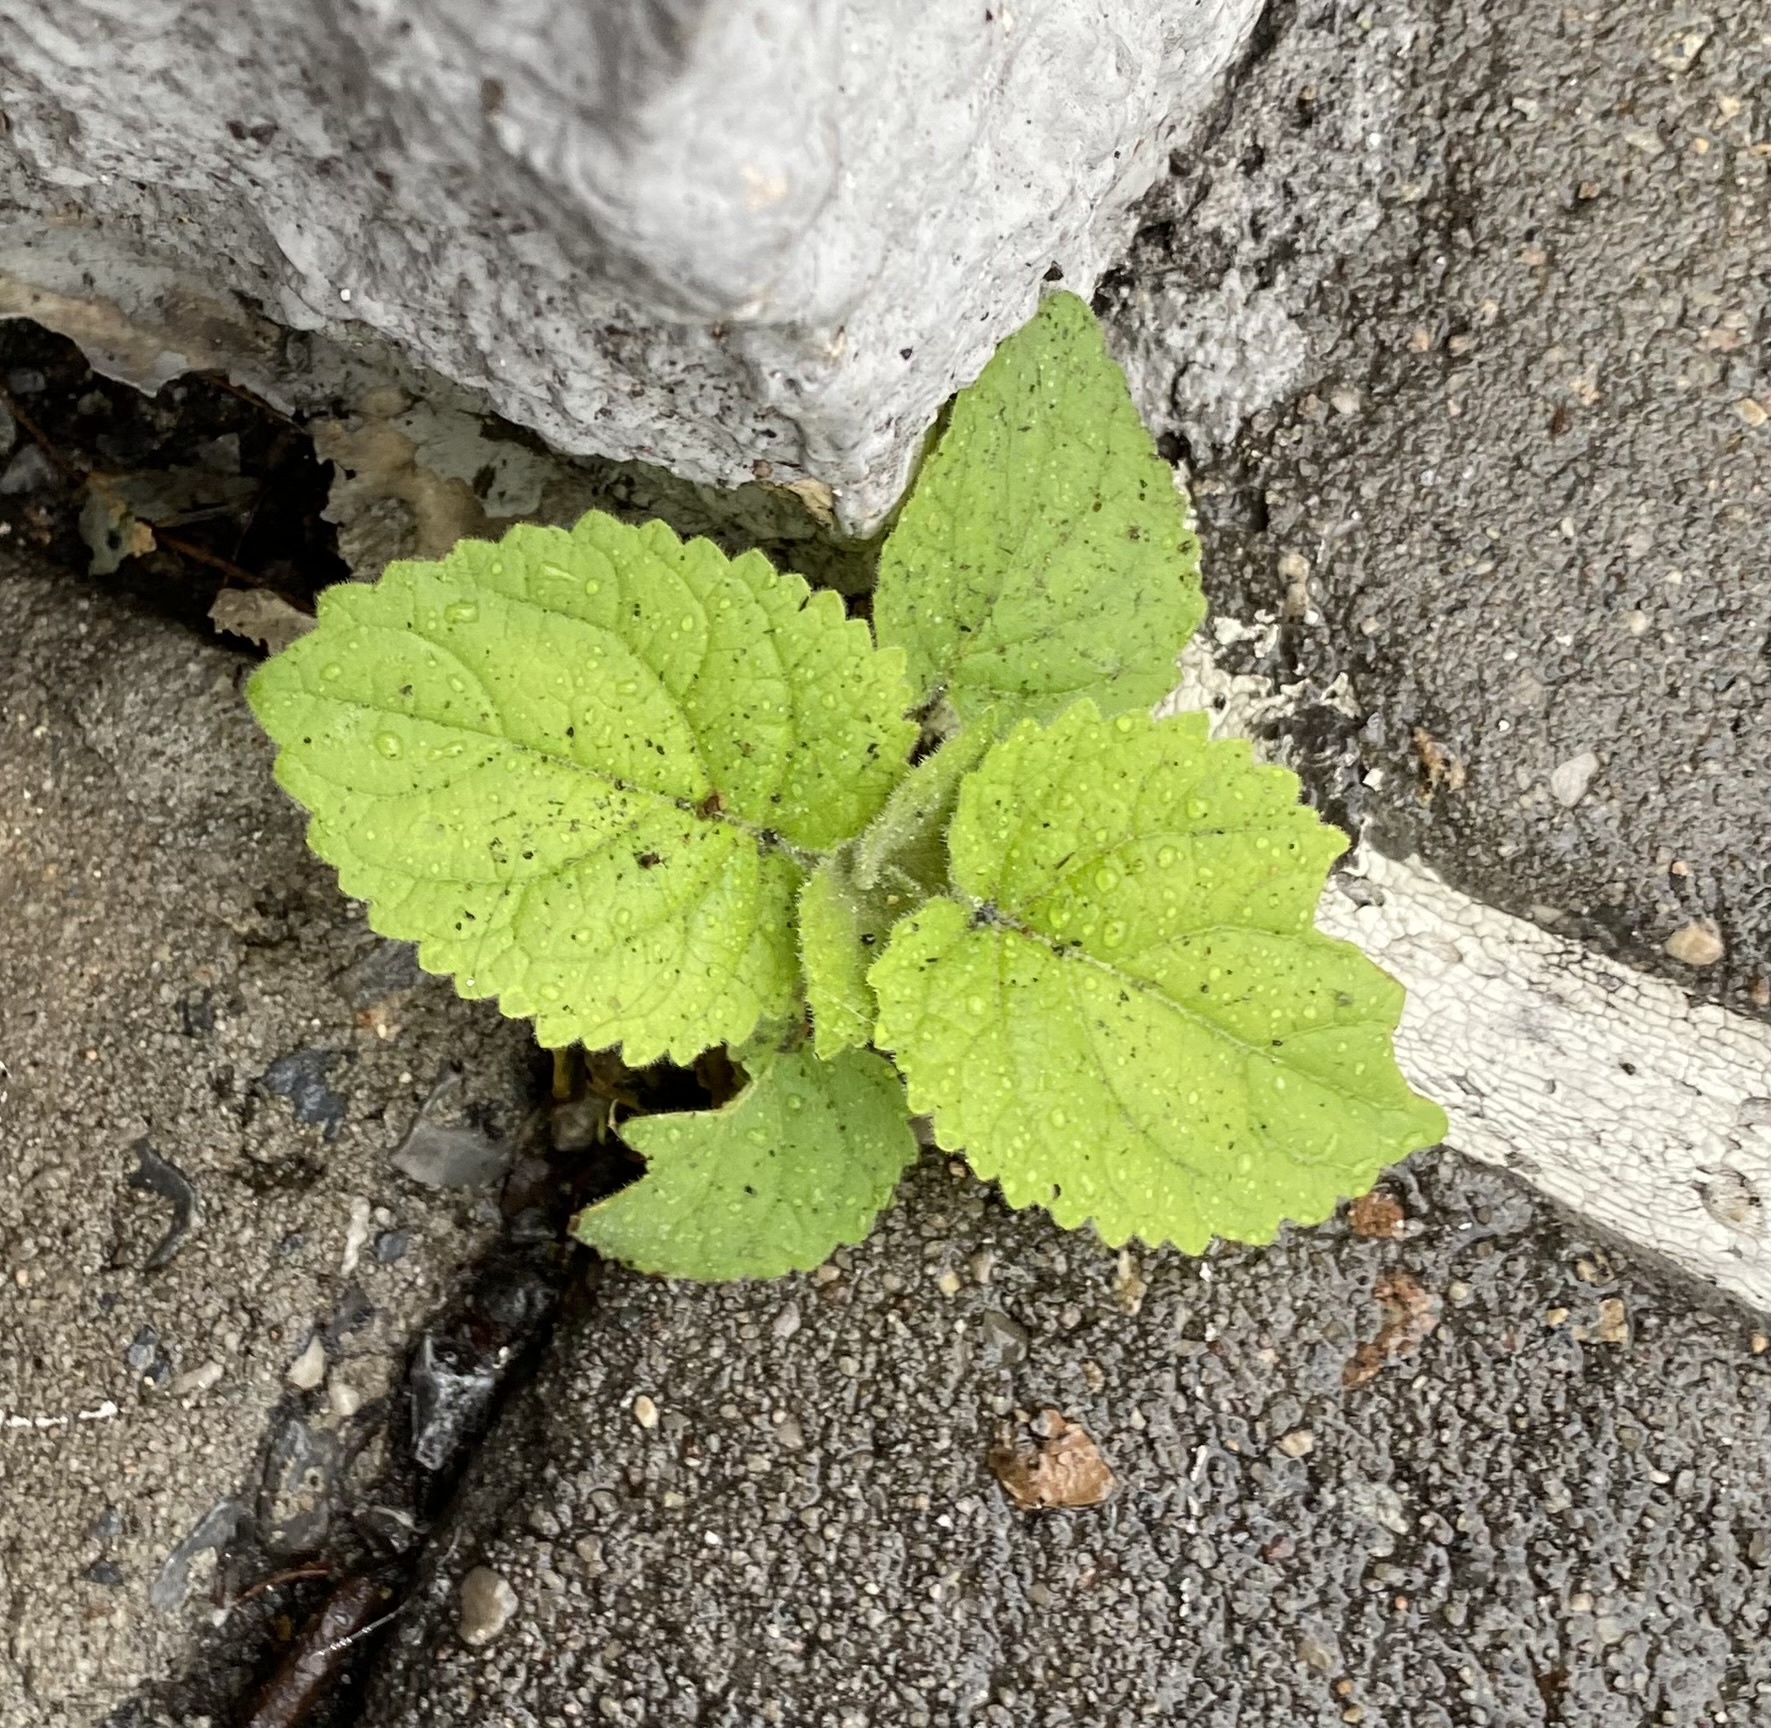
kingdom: Plantae
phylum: Tracheophyta
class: Magnoliopsida
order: Lamiales
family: Paulowniaceae
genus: Paulownia
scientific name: Paulownia tomentosa
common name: Foxglove-tree
